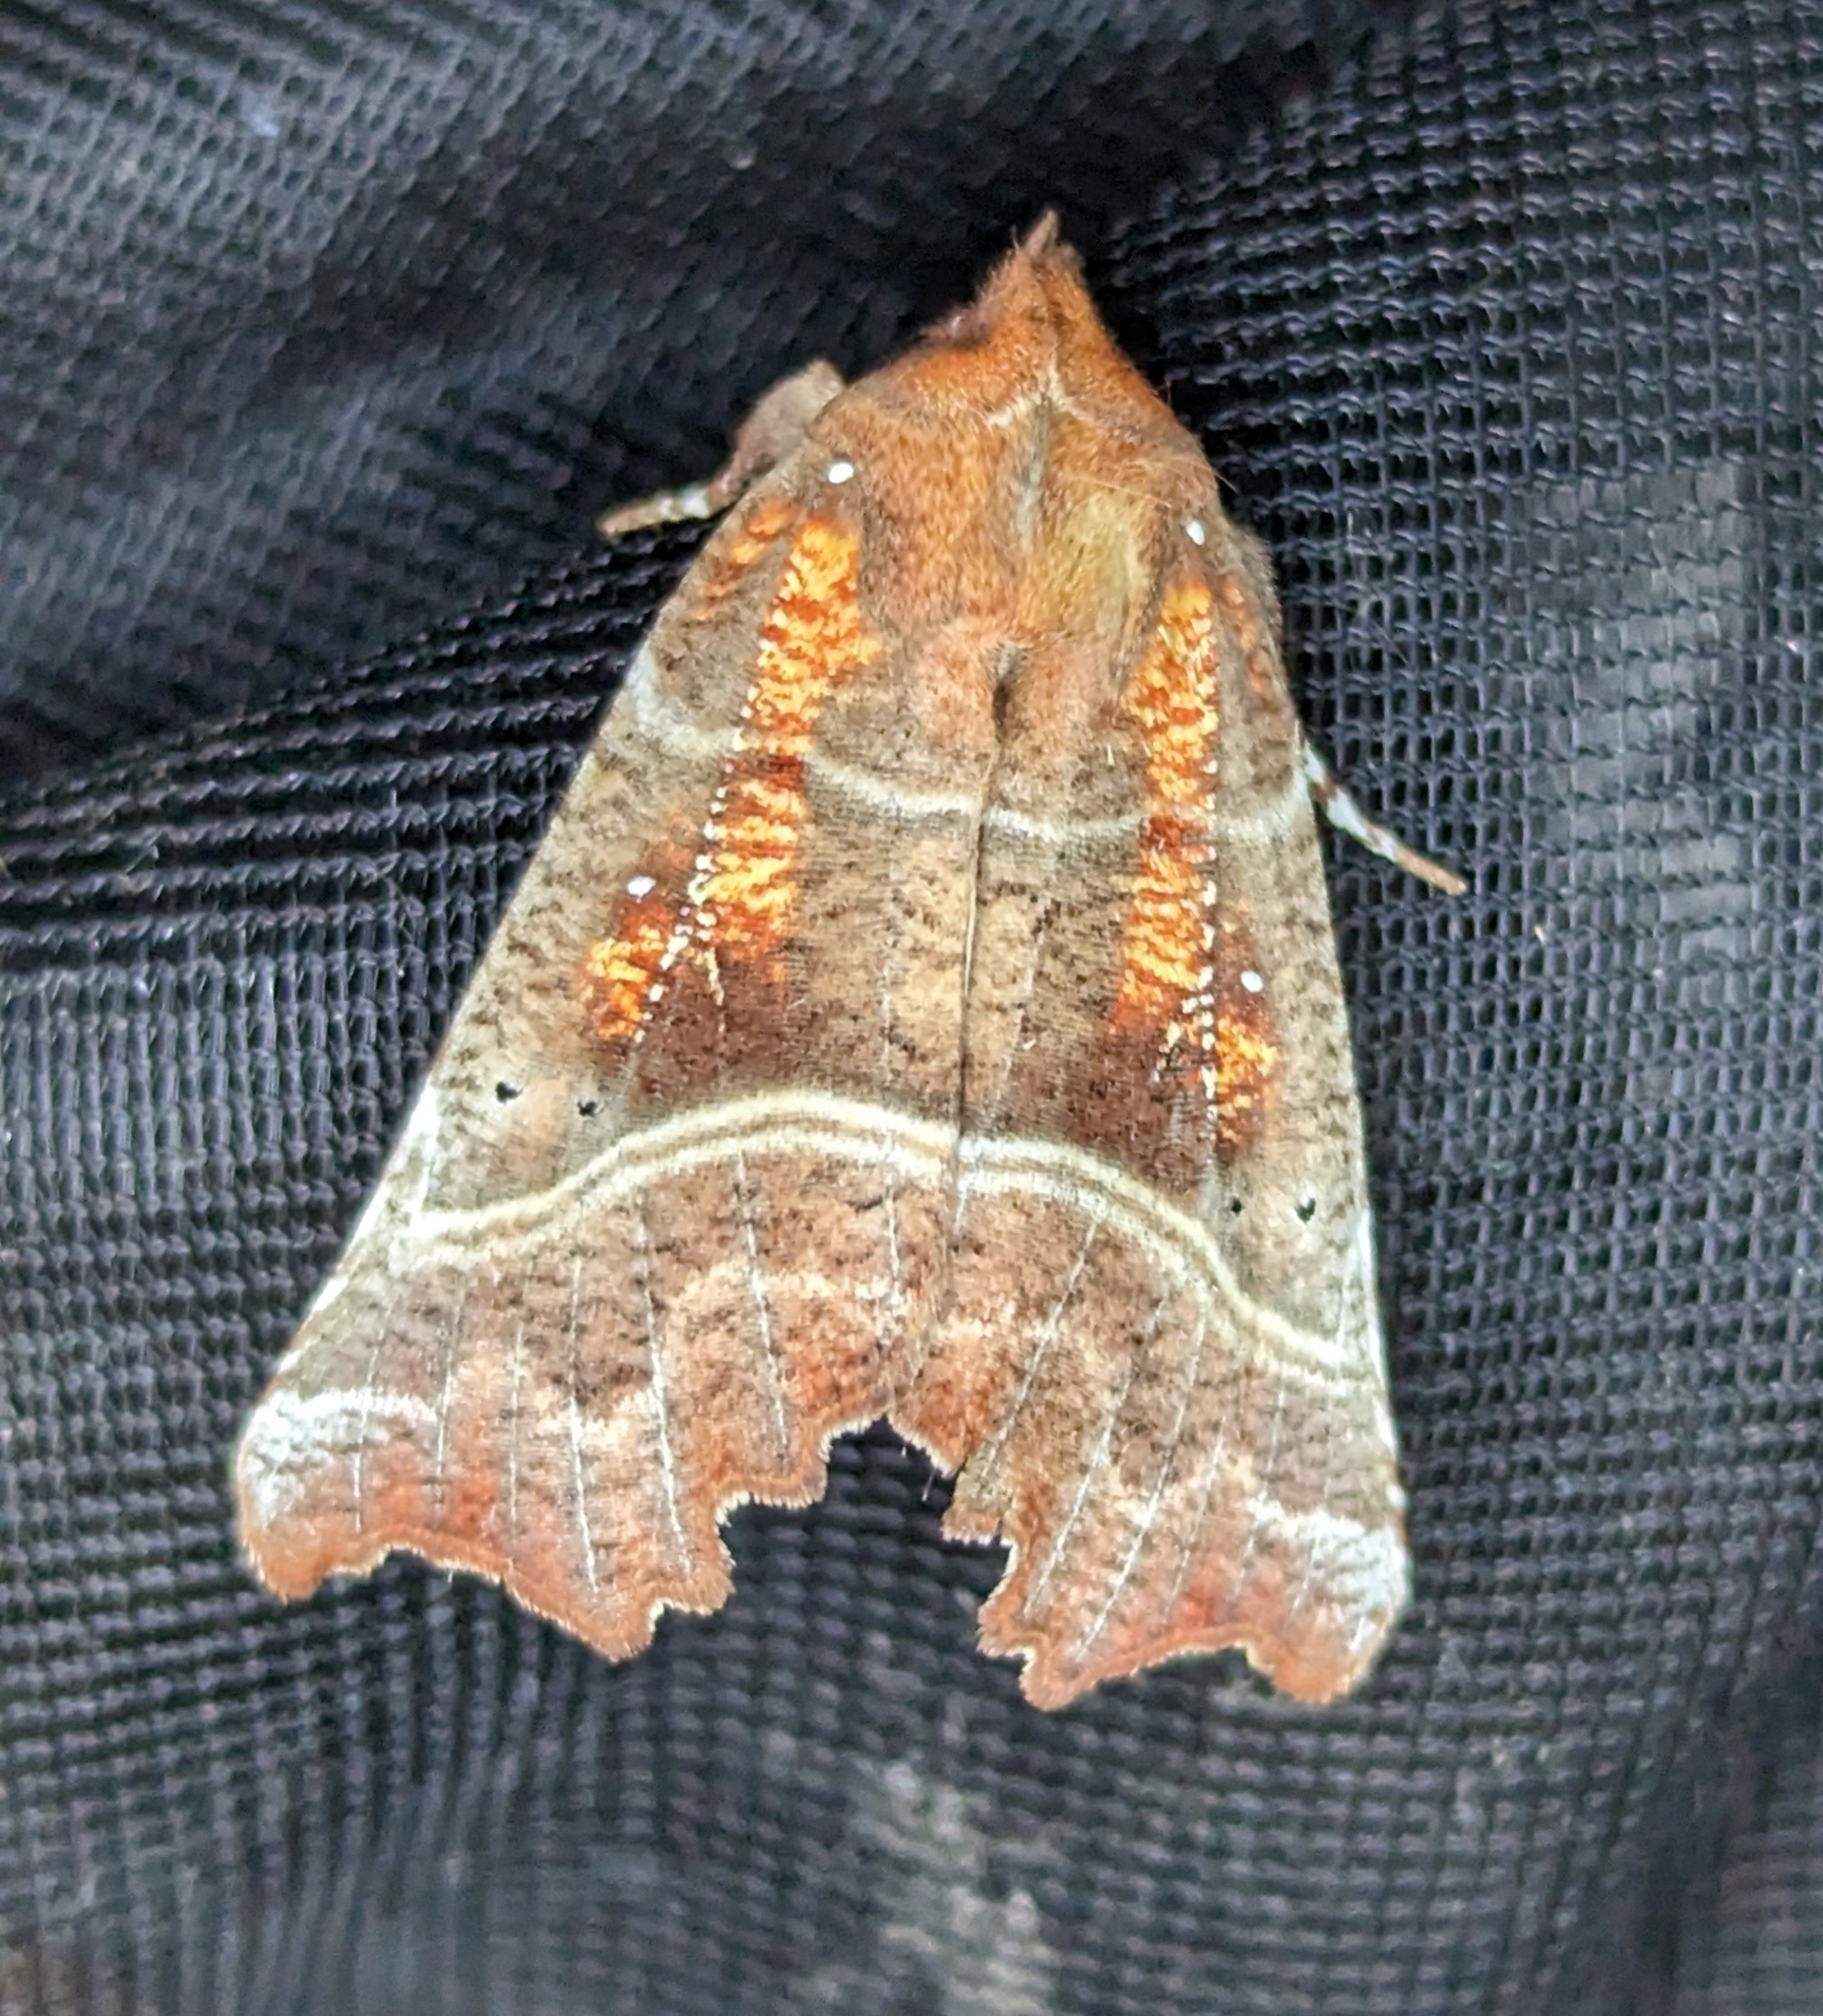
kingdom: Animalia
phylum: Arthropoda
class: Insecta
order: Lepidoptera
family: Erebidae
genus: Scoliopteryx
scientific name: Scoliopteryx libatrix
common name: Herald
